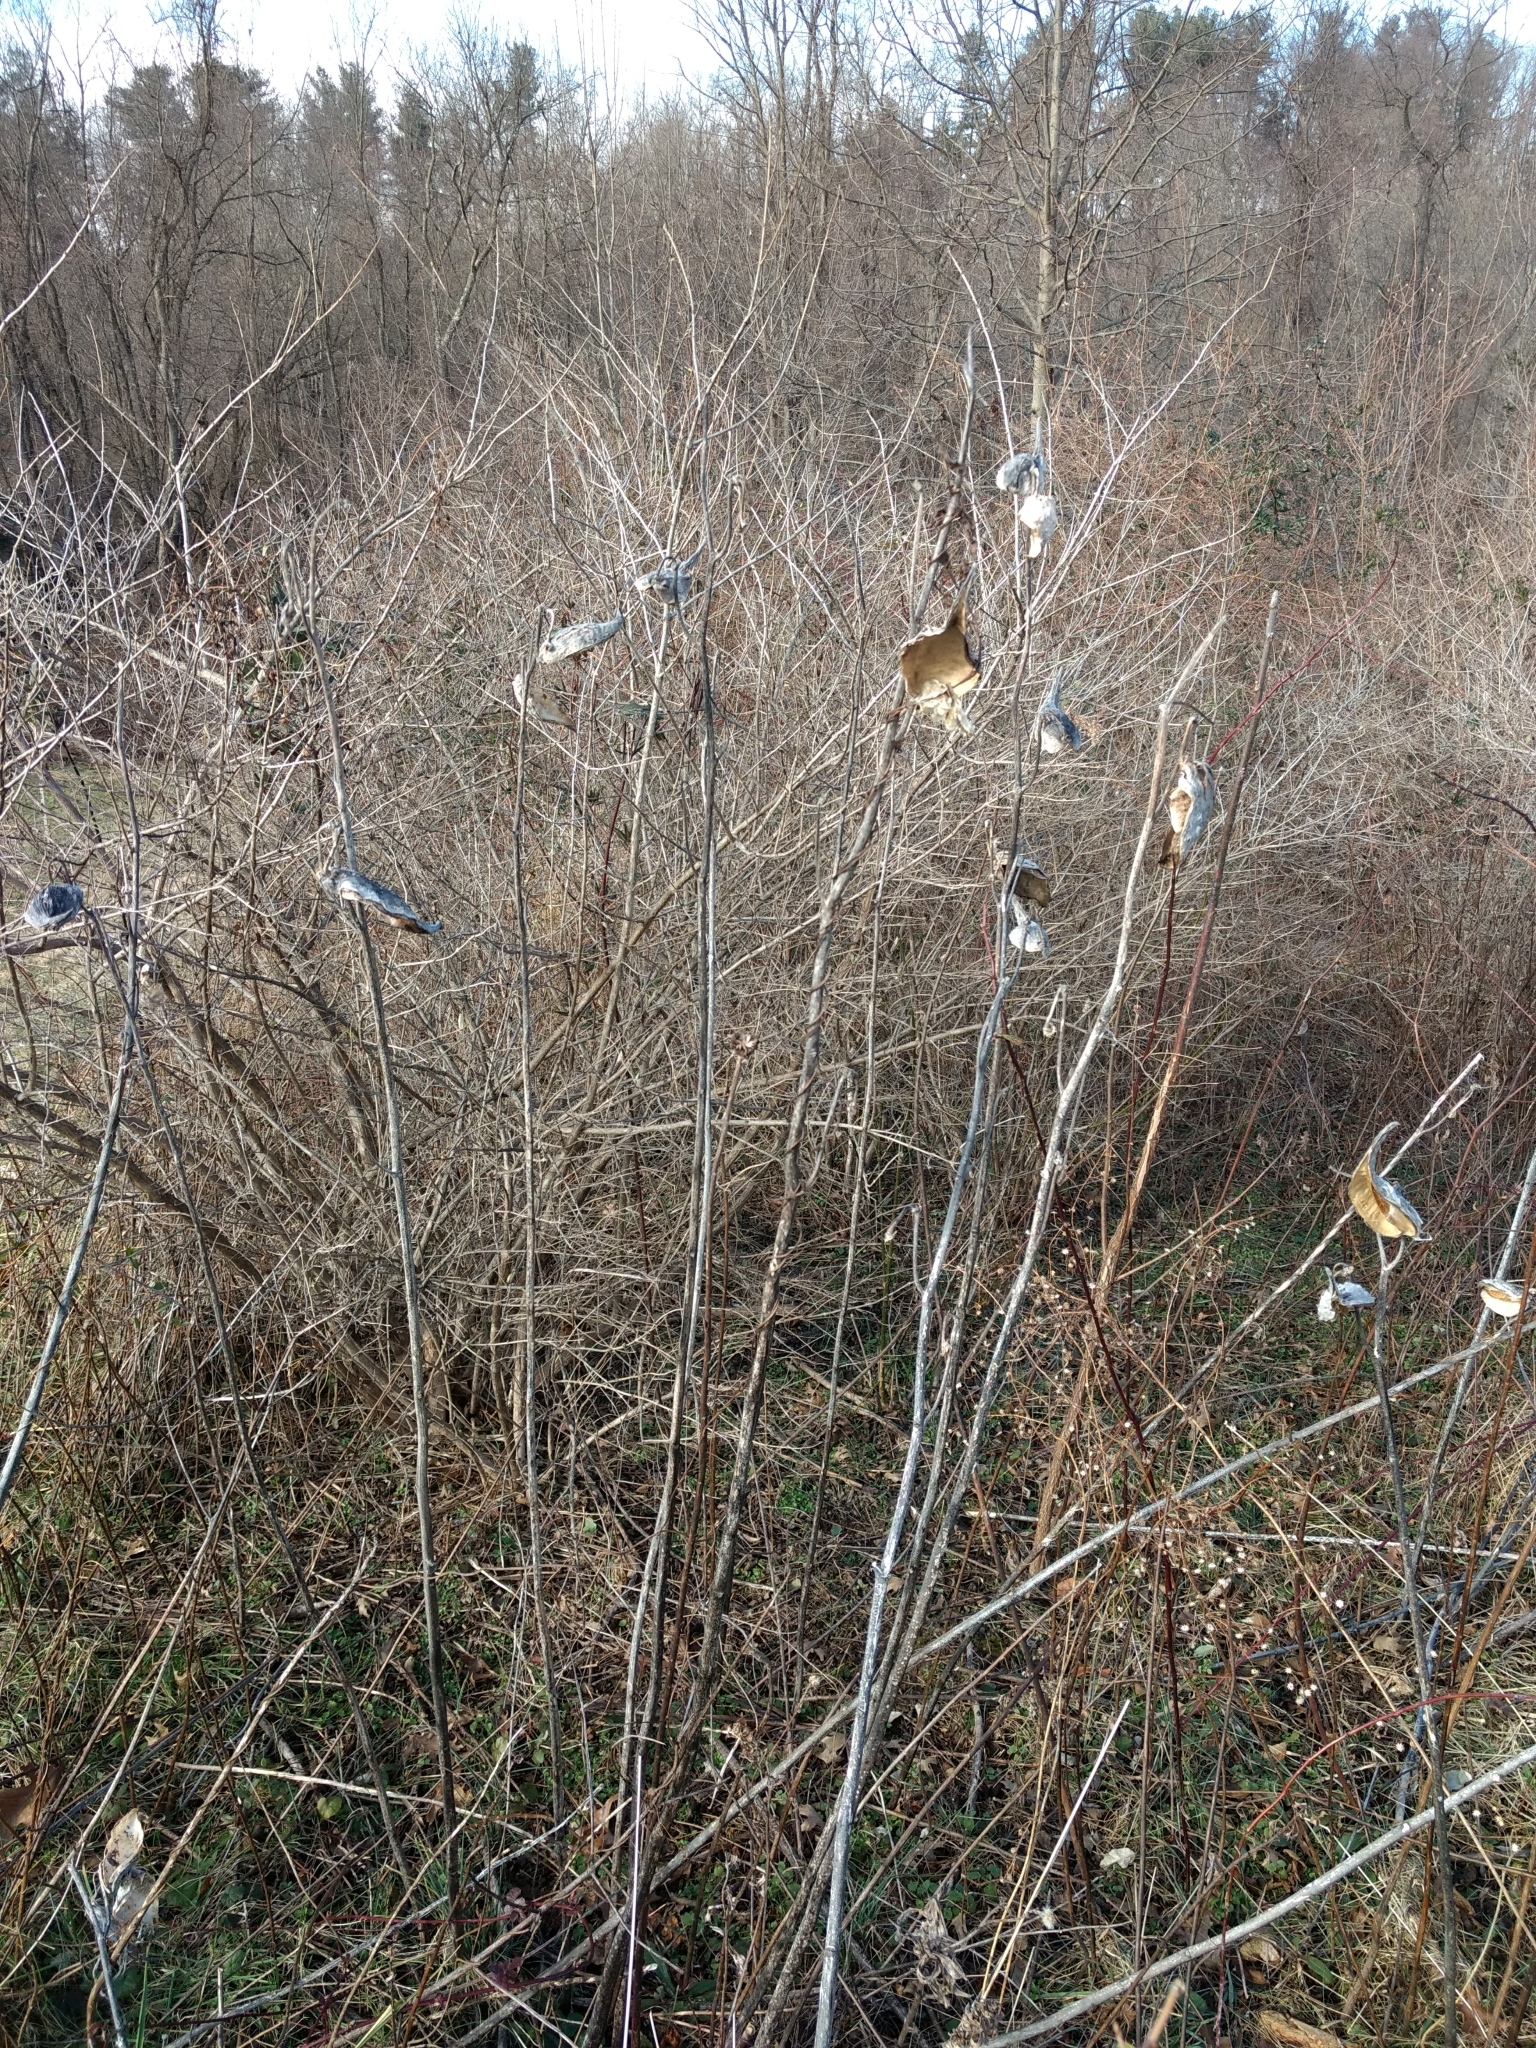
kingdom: Plantae
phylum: Tracheophyta
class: Magnoliopsida
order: Gentianales
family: Apocynaceae
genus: Asclepias
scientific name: Asclepias syriaca
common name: Common milkweed
